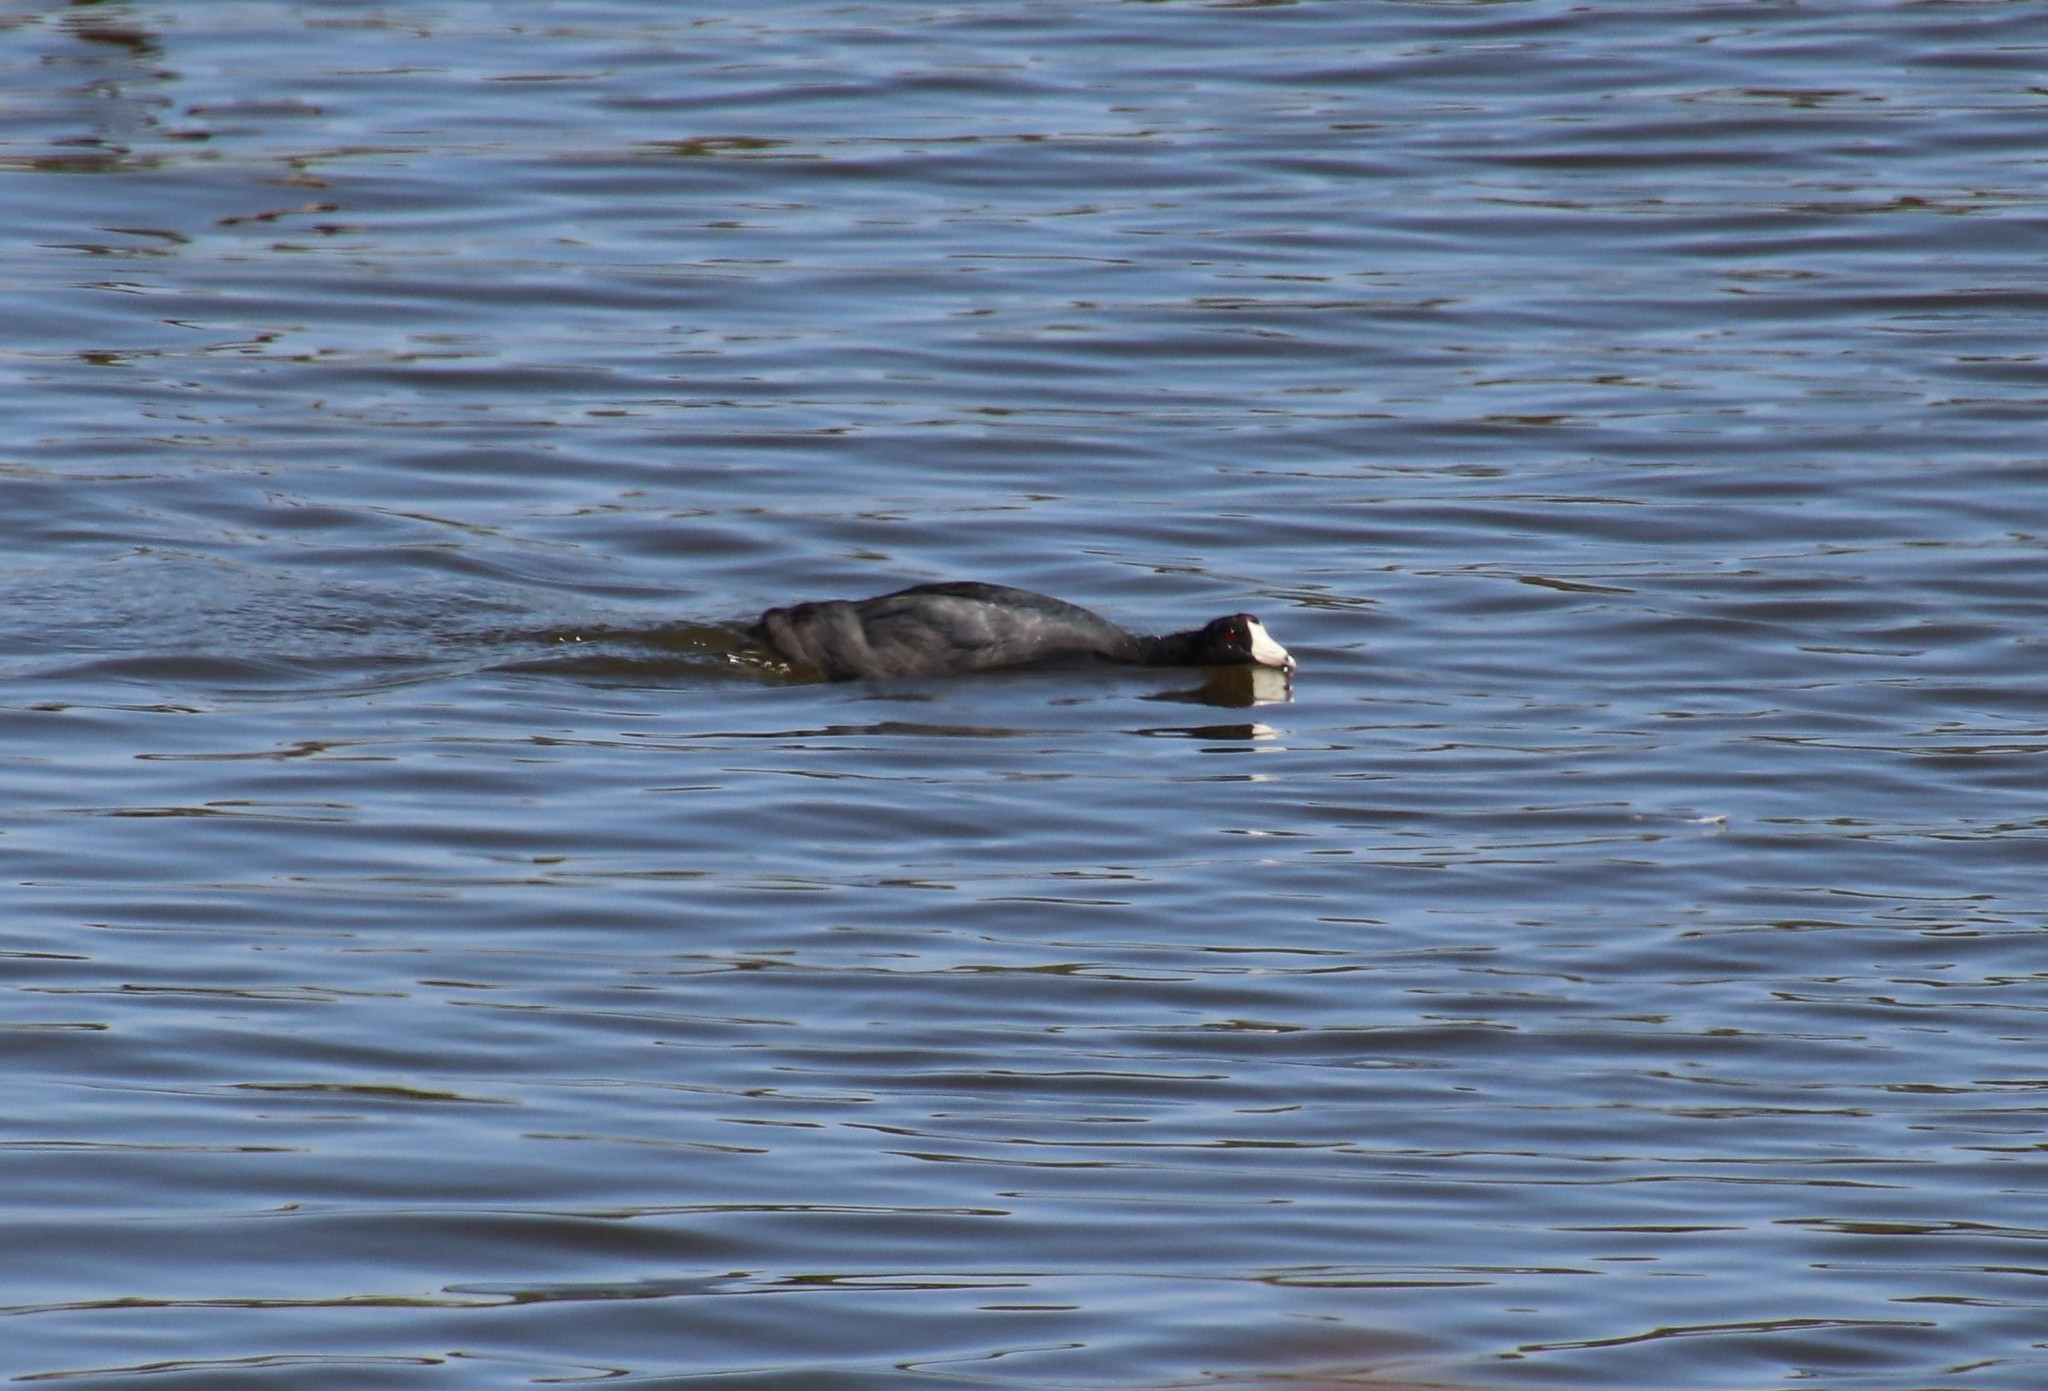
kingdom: Animalia
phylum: Chordata
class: Aves
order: Gruiformes
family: Rallidae
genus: Fulica
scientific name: Fulica americana
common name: American coot
